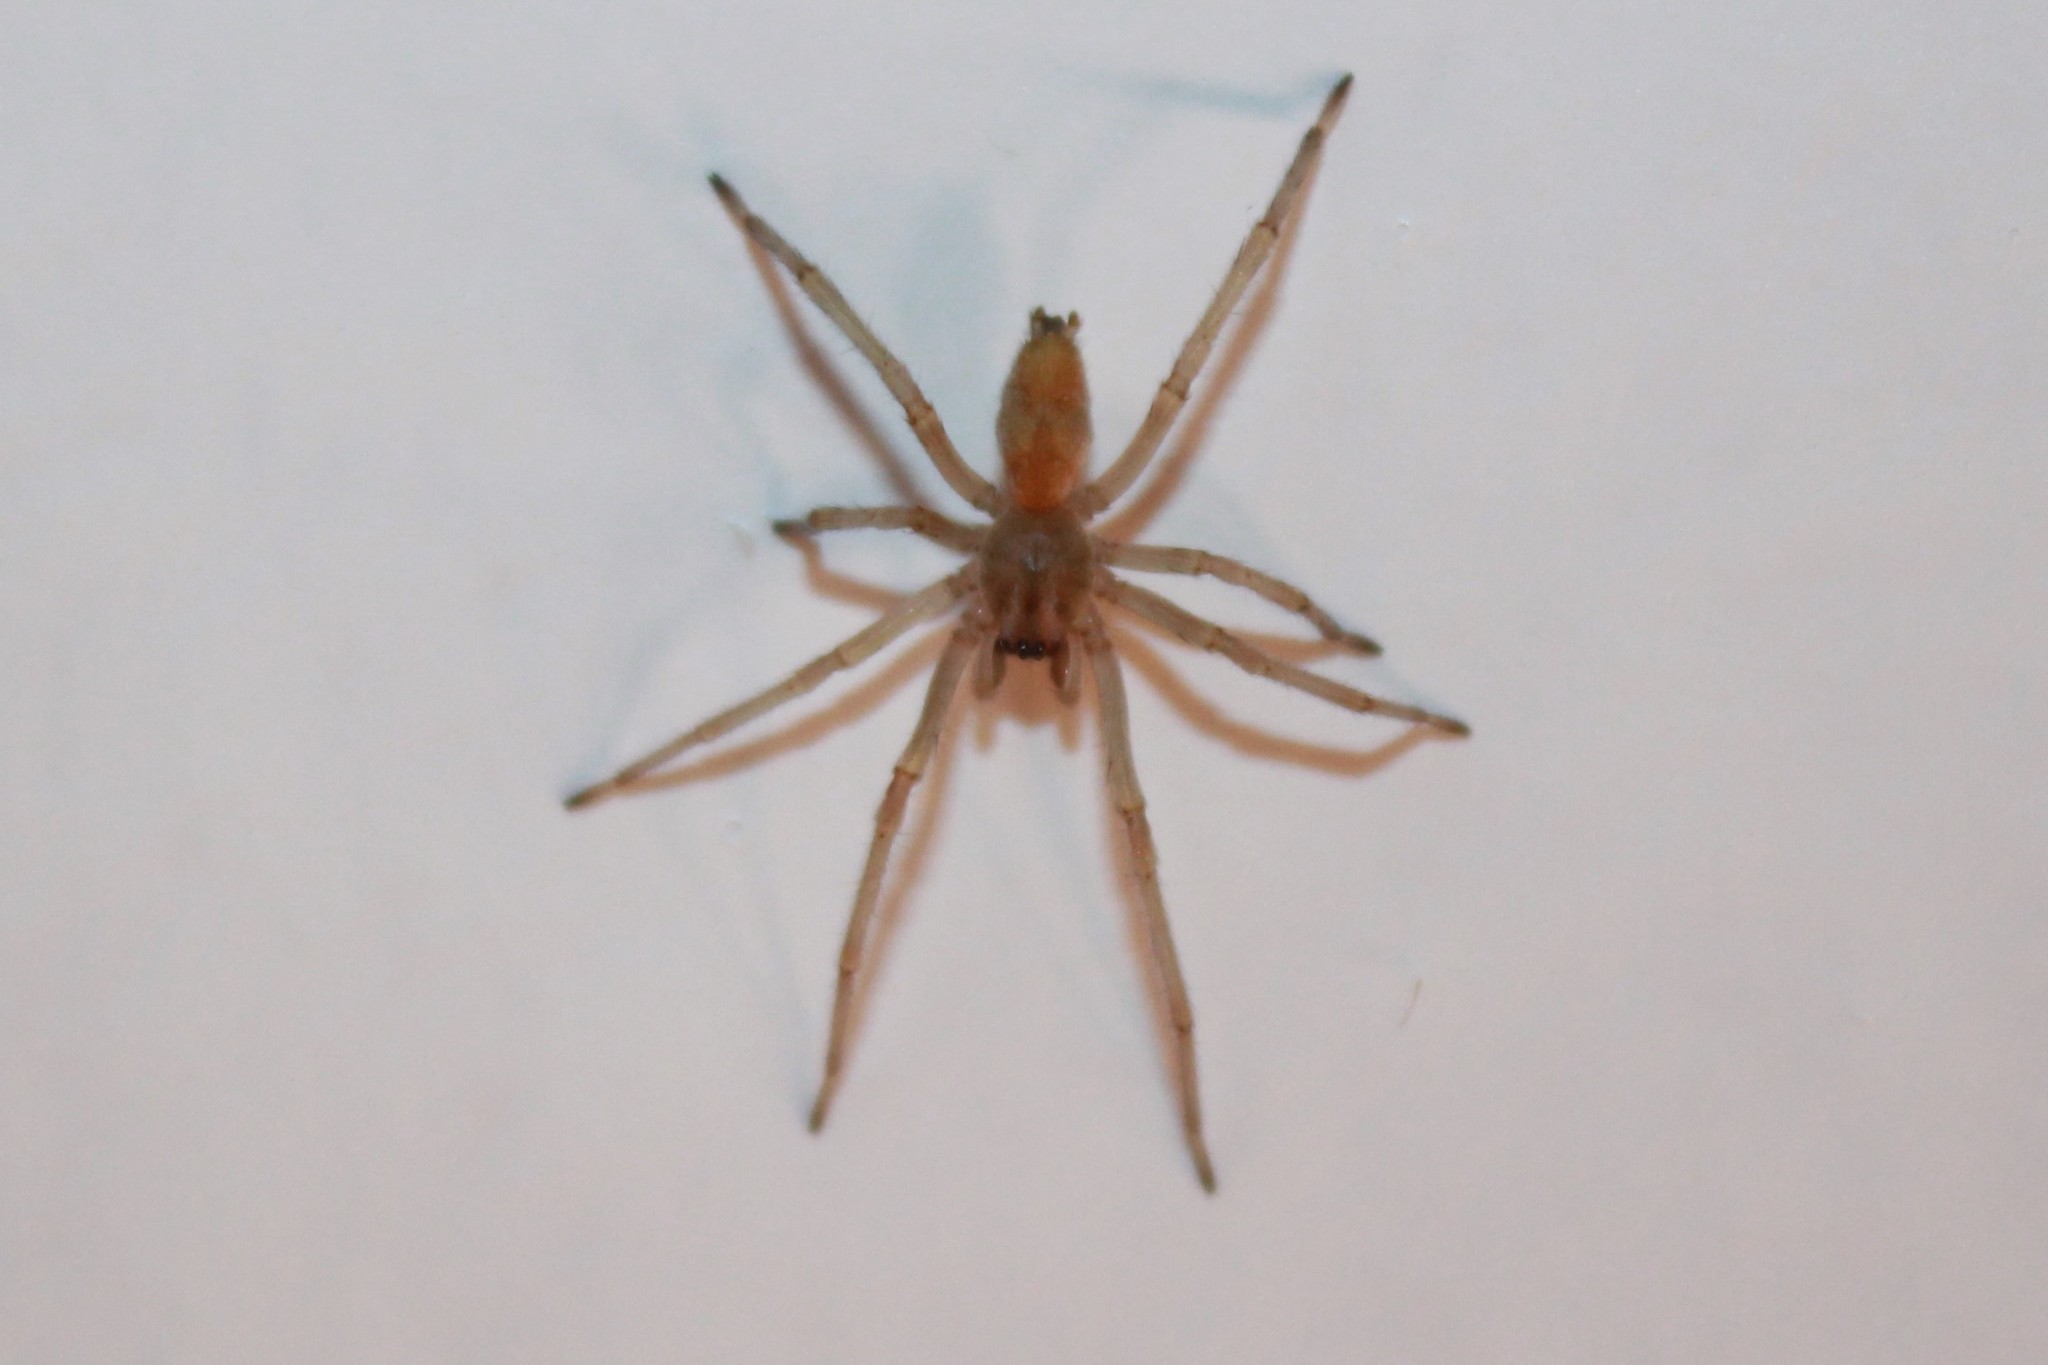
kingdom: Animalia
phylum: Arthropoda
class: Arachnida
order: Araneae
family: Cheiracanthiidae
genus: Cheiracanthium
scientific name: Cheiracanthium mildei
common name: Northern yellow sac spider
